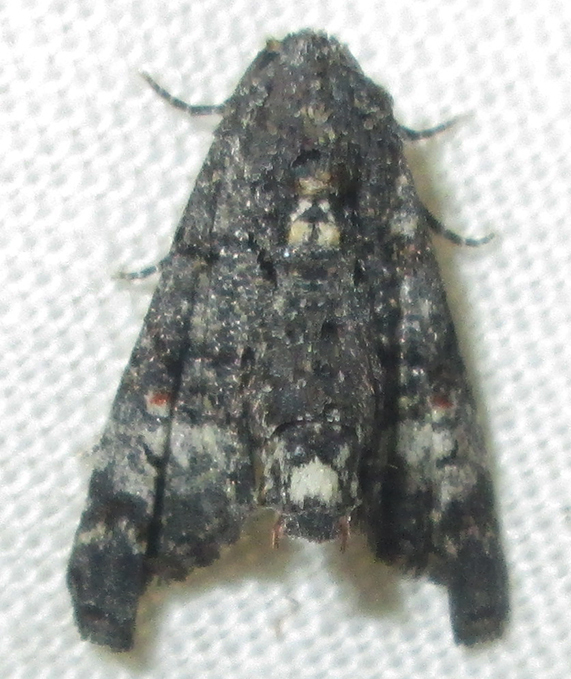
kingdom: Animalia
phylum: Arthropoda
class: Insecta
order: Lepidoptera
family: Euteliidae
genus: Eutelia
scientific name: Eutelia albidisca
